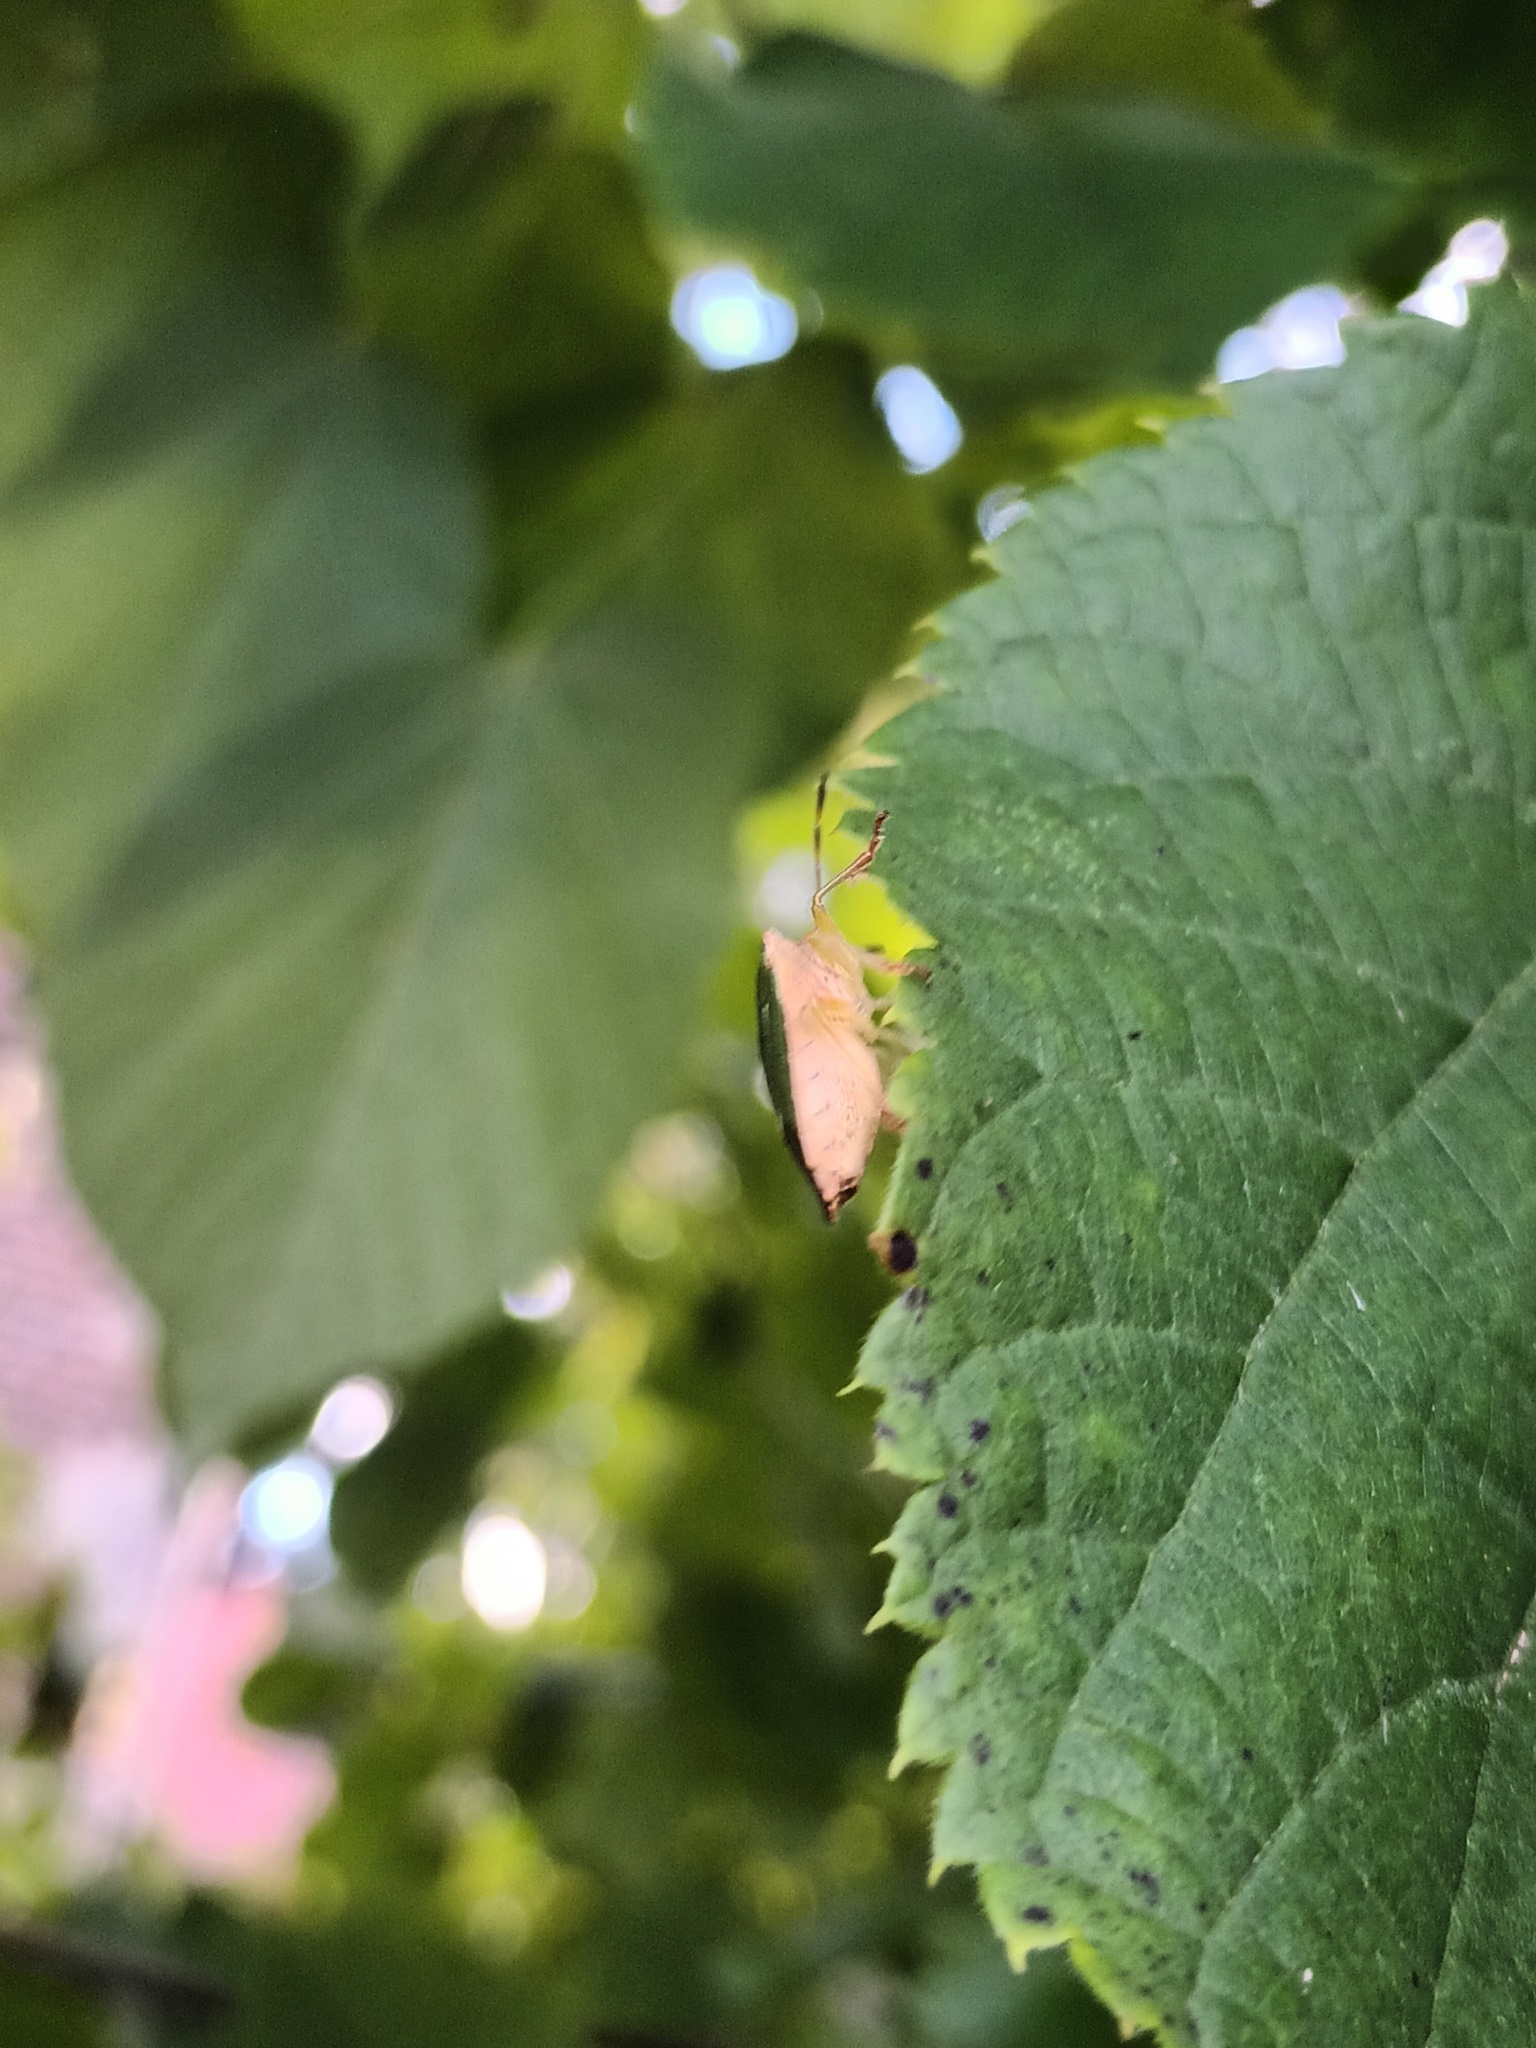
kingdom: Animalia
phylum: Arthropoda
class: Insecta
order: Hemiptera
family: Pentatomidae
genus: Palomena
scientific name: Palomena prasina
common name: Green shieldbug
